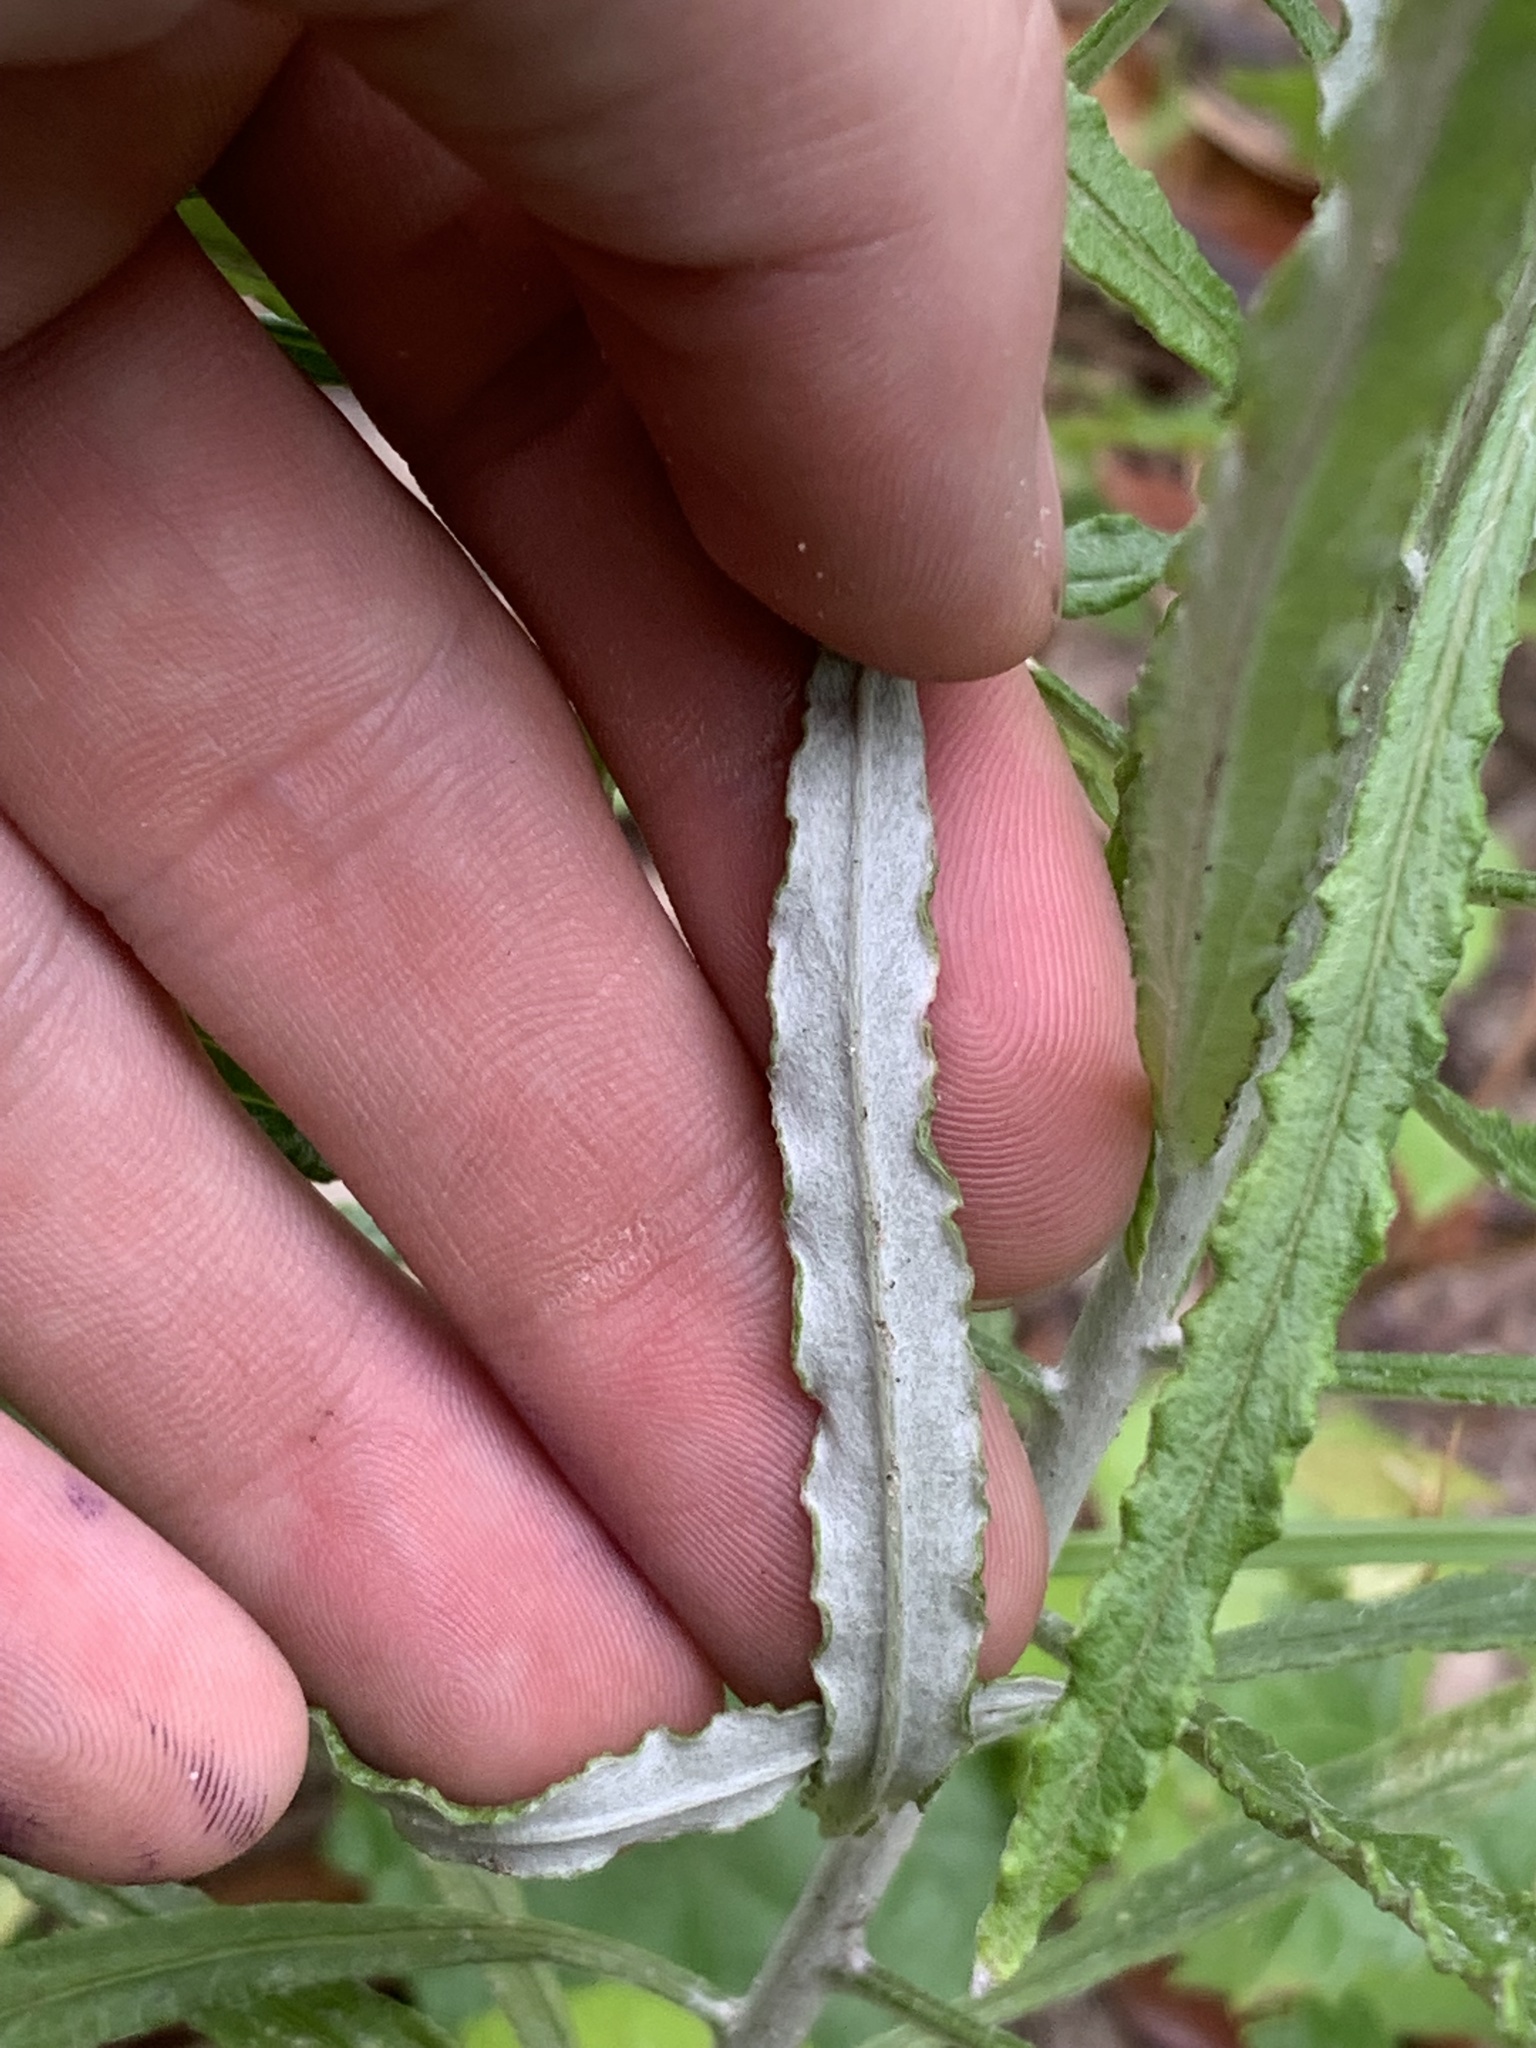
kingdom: Plantae
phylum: Tracheophyta
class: Magnoliopsida
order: Asterales
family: Asteraceae
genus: Pseudognaphalium
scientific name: Pseudognaphalium obtusifolium
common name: Eastern rabbit-tobacco
